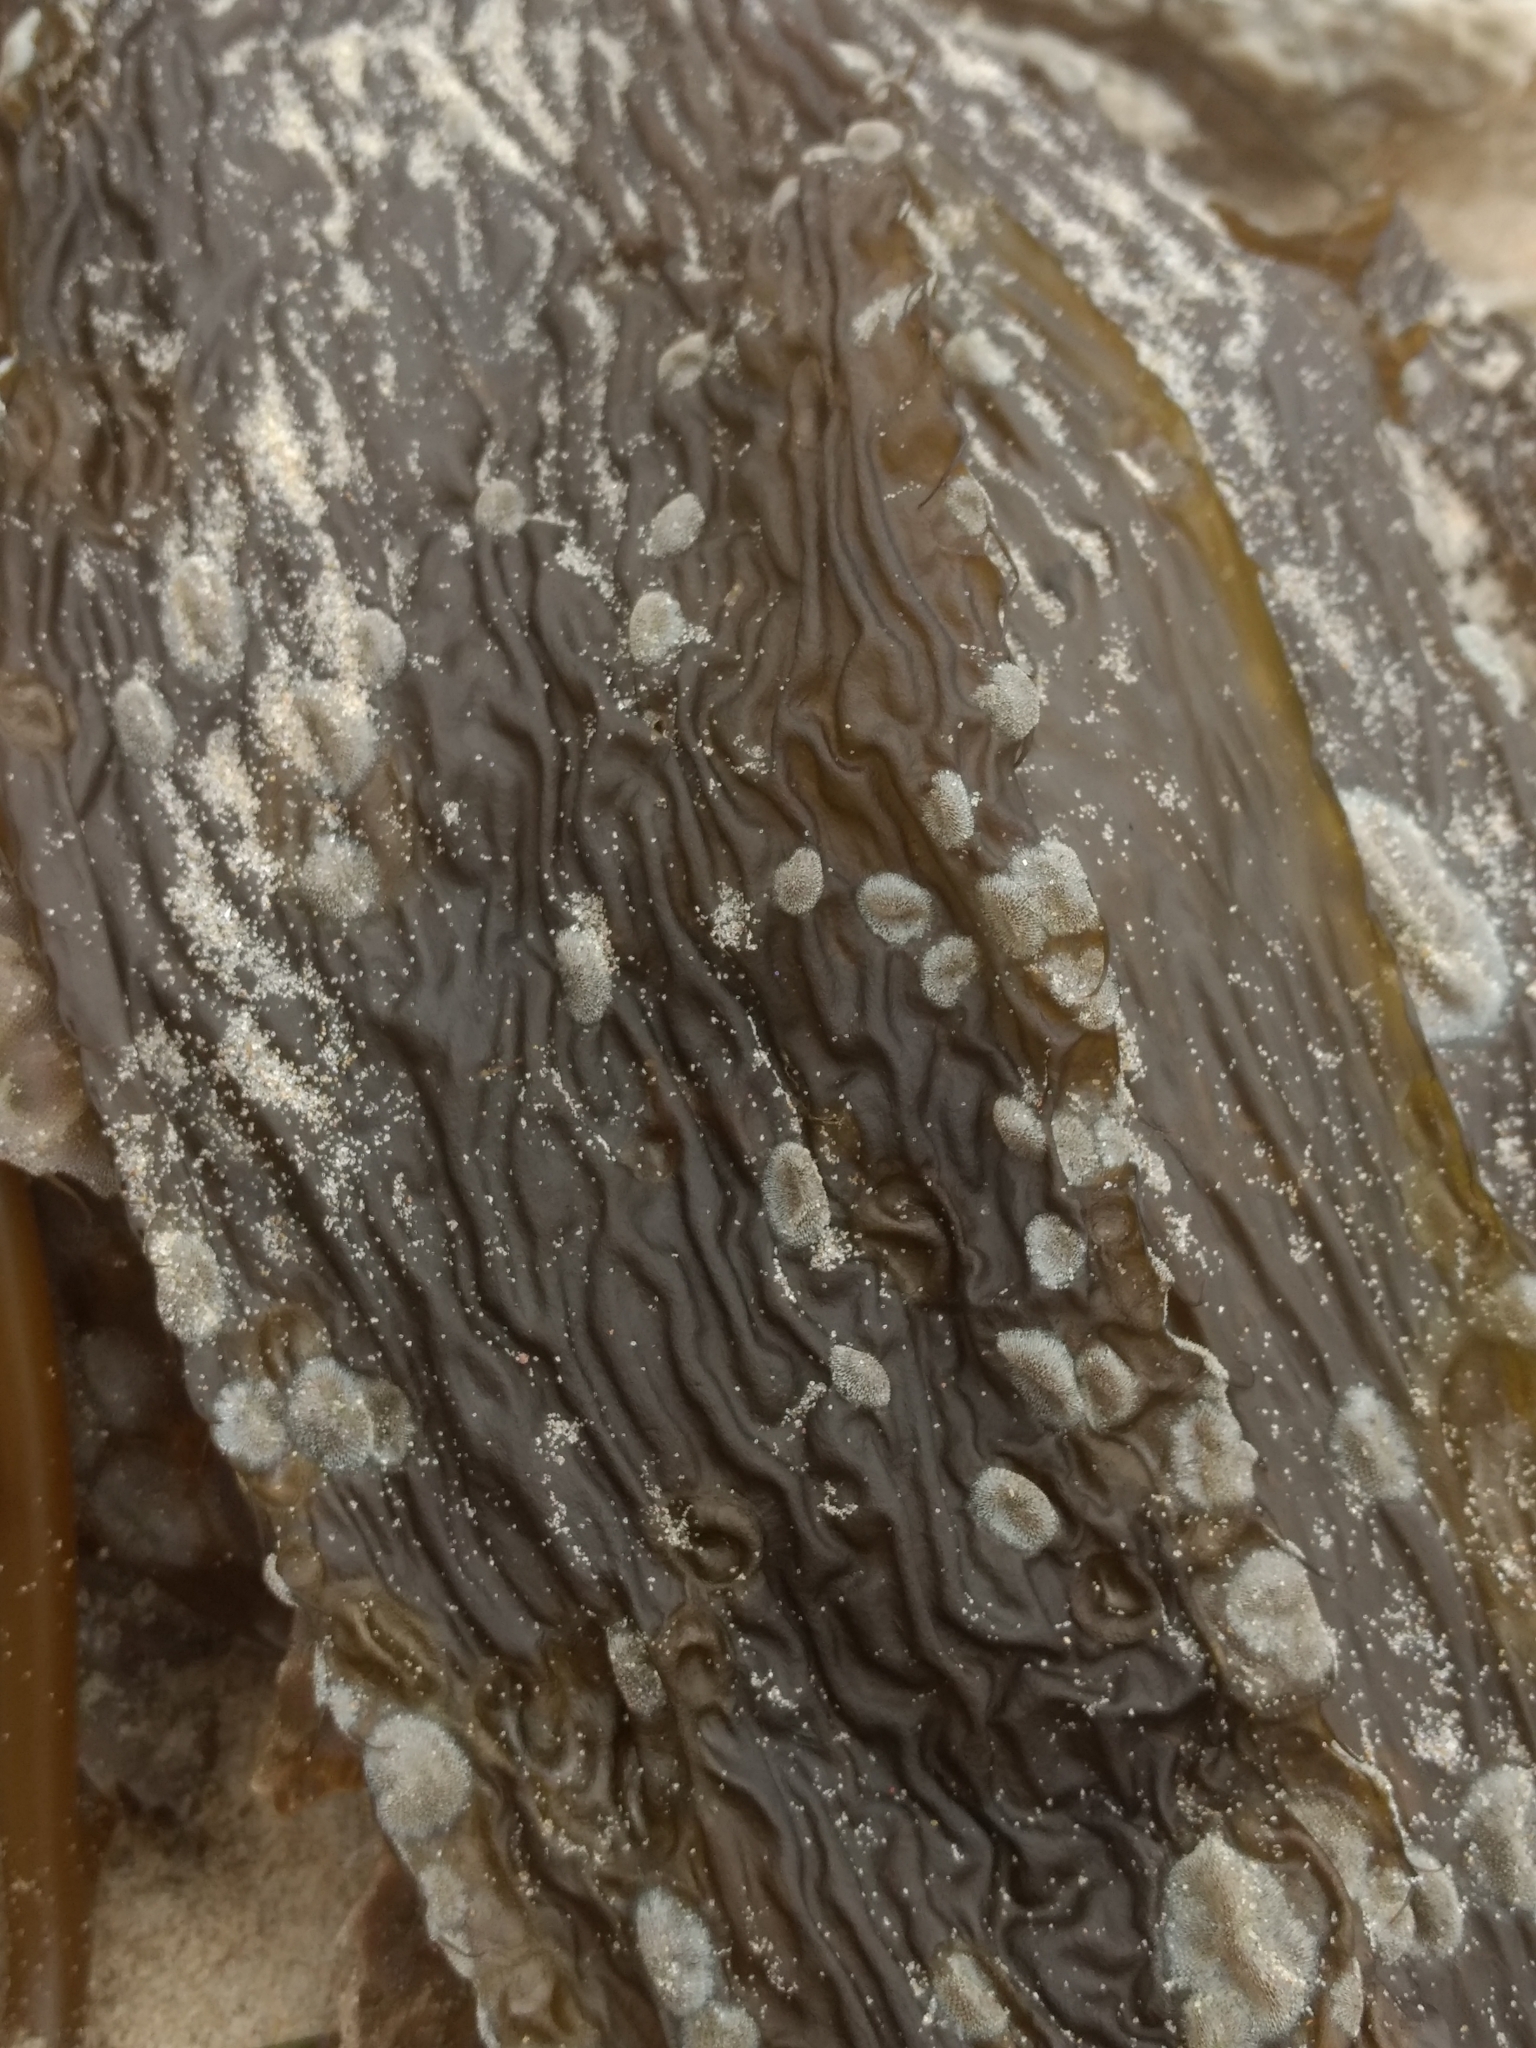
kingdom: Chromista
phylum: Ochrophyta
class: Phaeophyceae
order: Laminariales
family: Laminariaceae
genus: Macrocystis
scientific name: Macrocystis pyrifera
